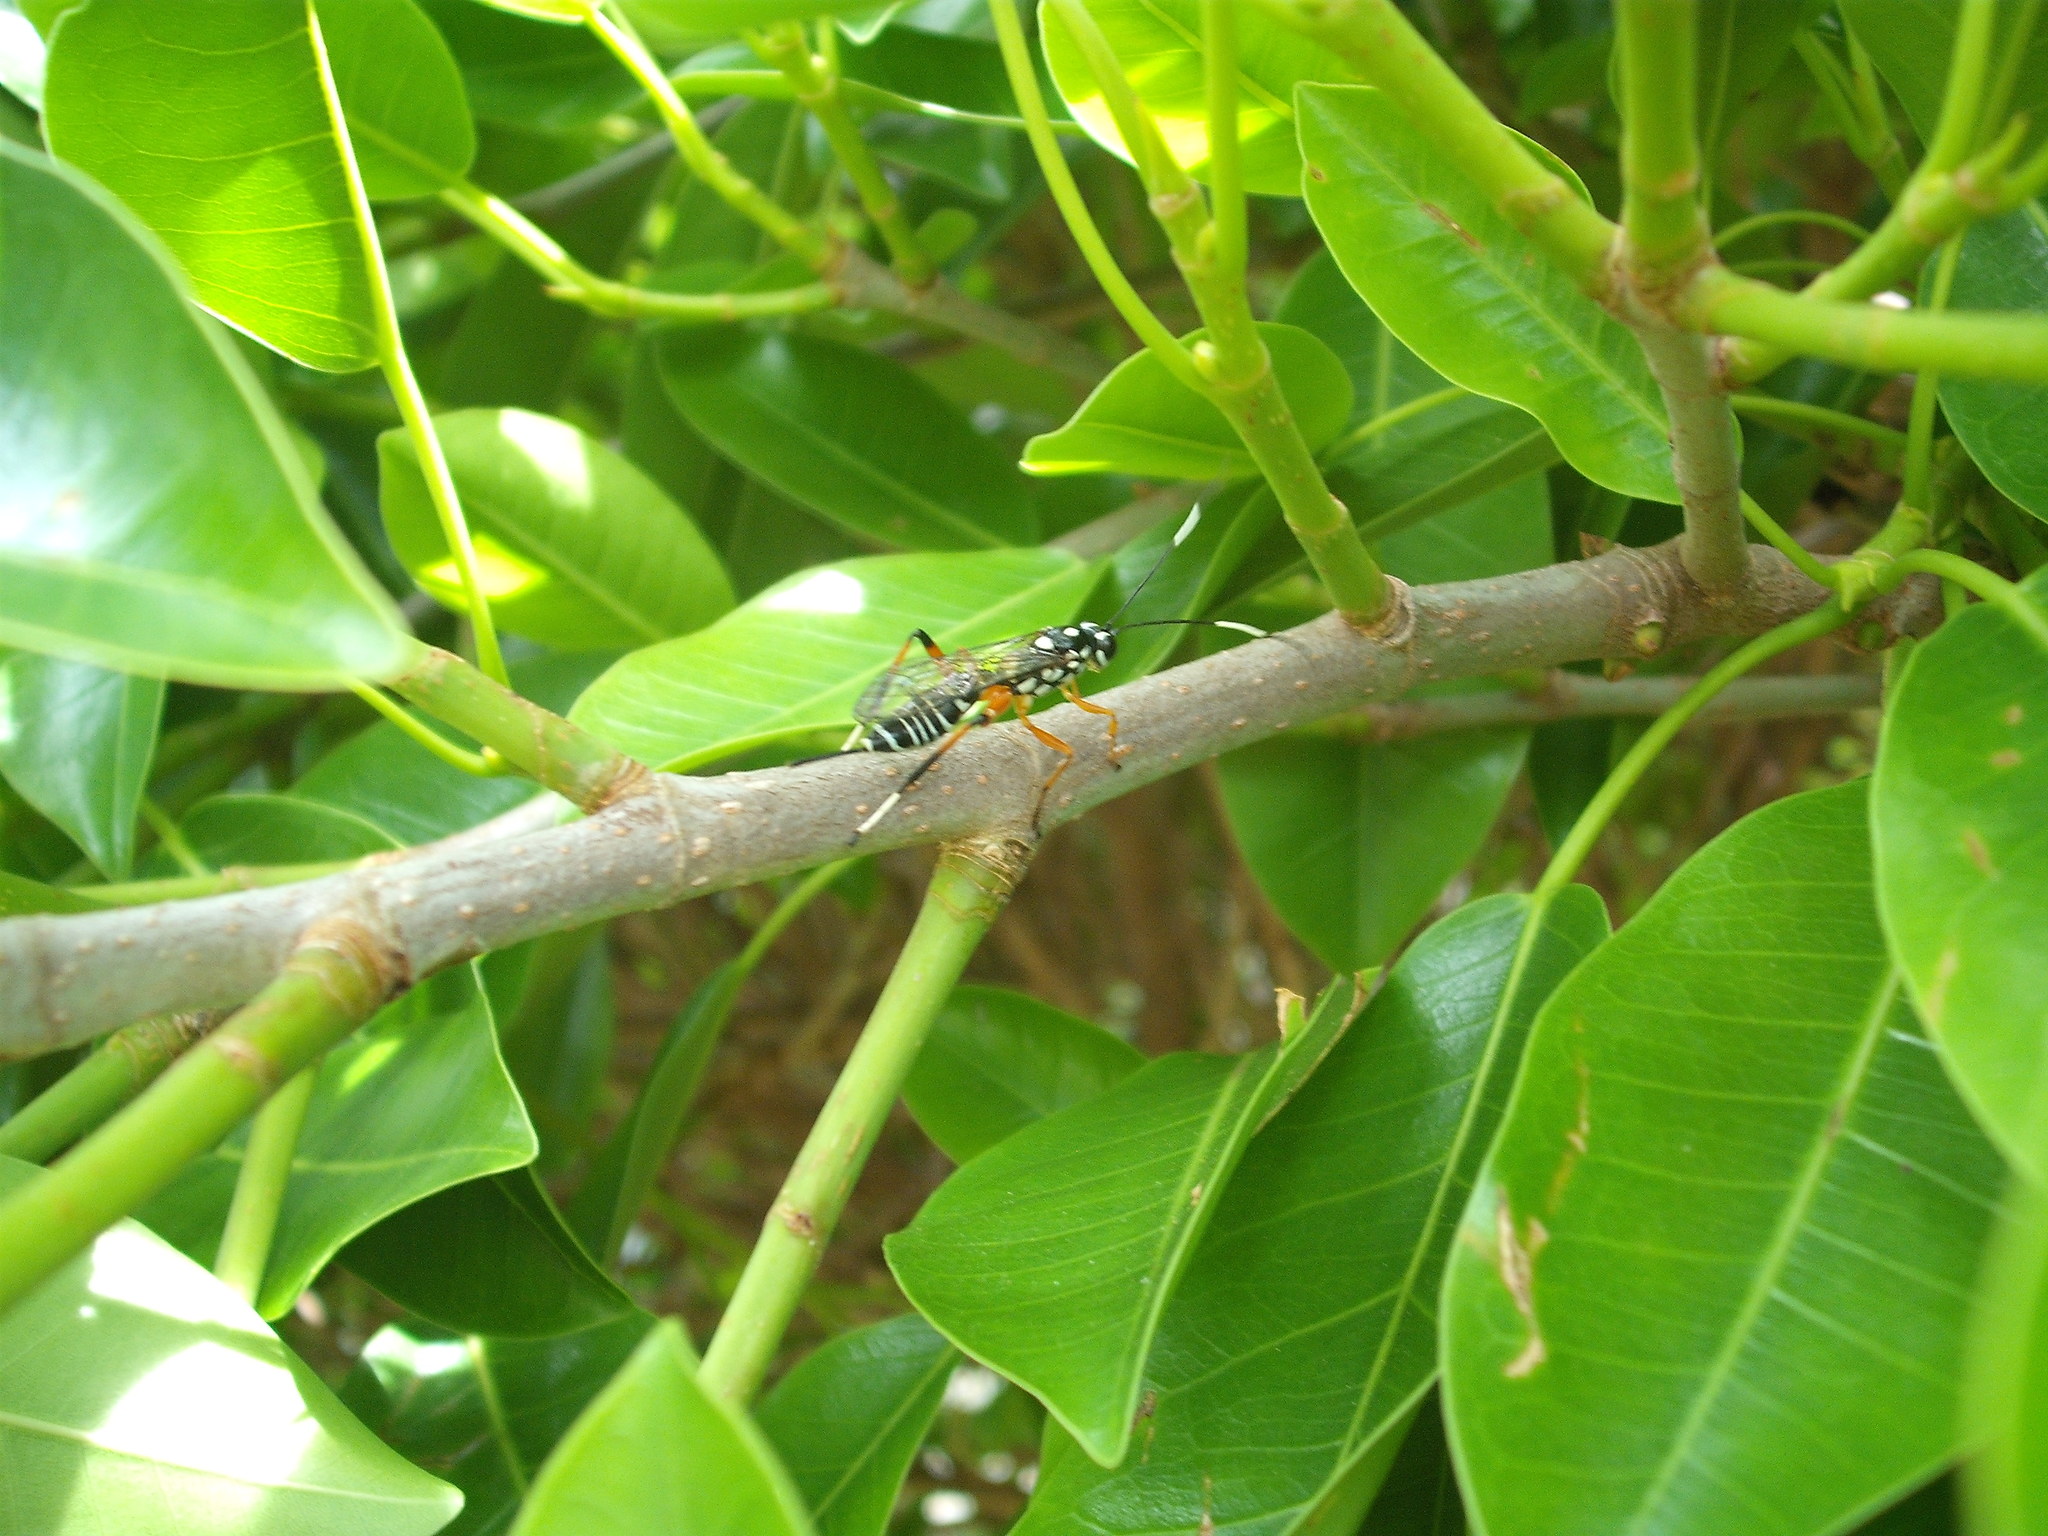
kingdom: Animalia
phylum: Arthropoda
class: Insecta
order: Hymenoptera
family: Ichneumonidae
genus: Xanthocryptus
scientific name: Xanthocryptus novozealandicus
